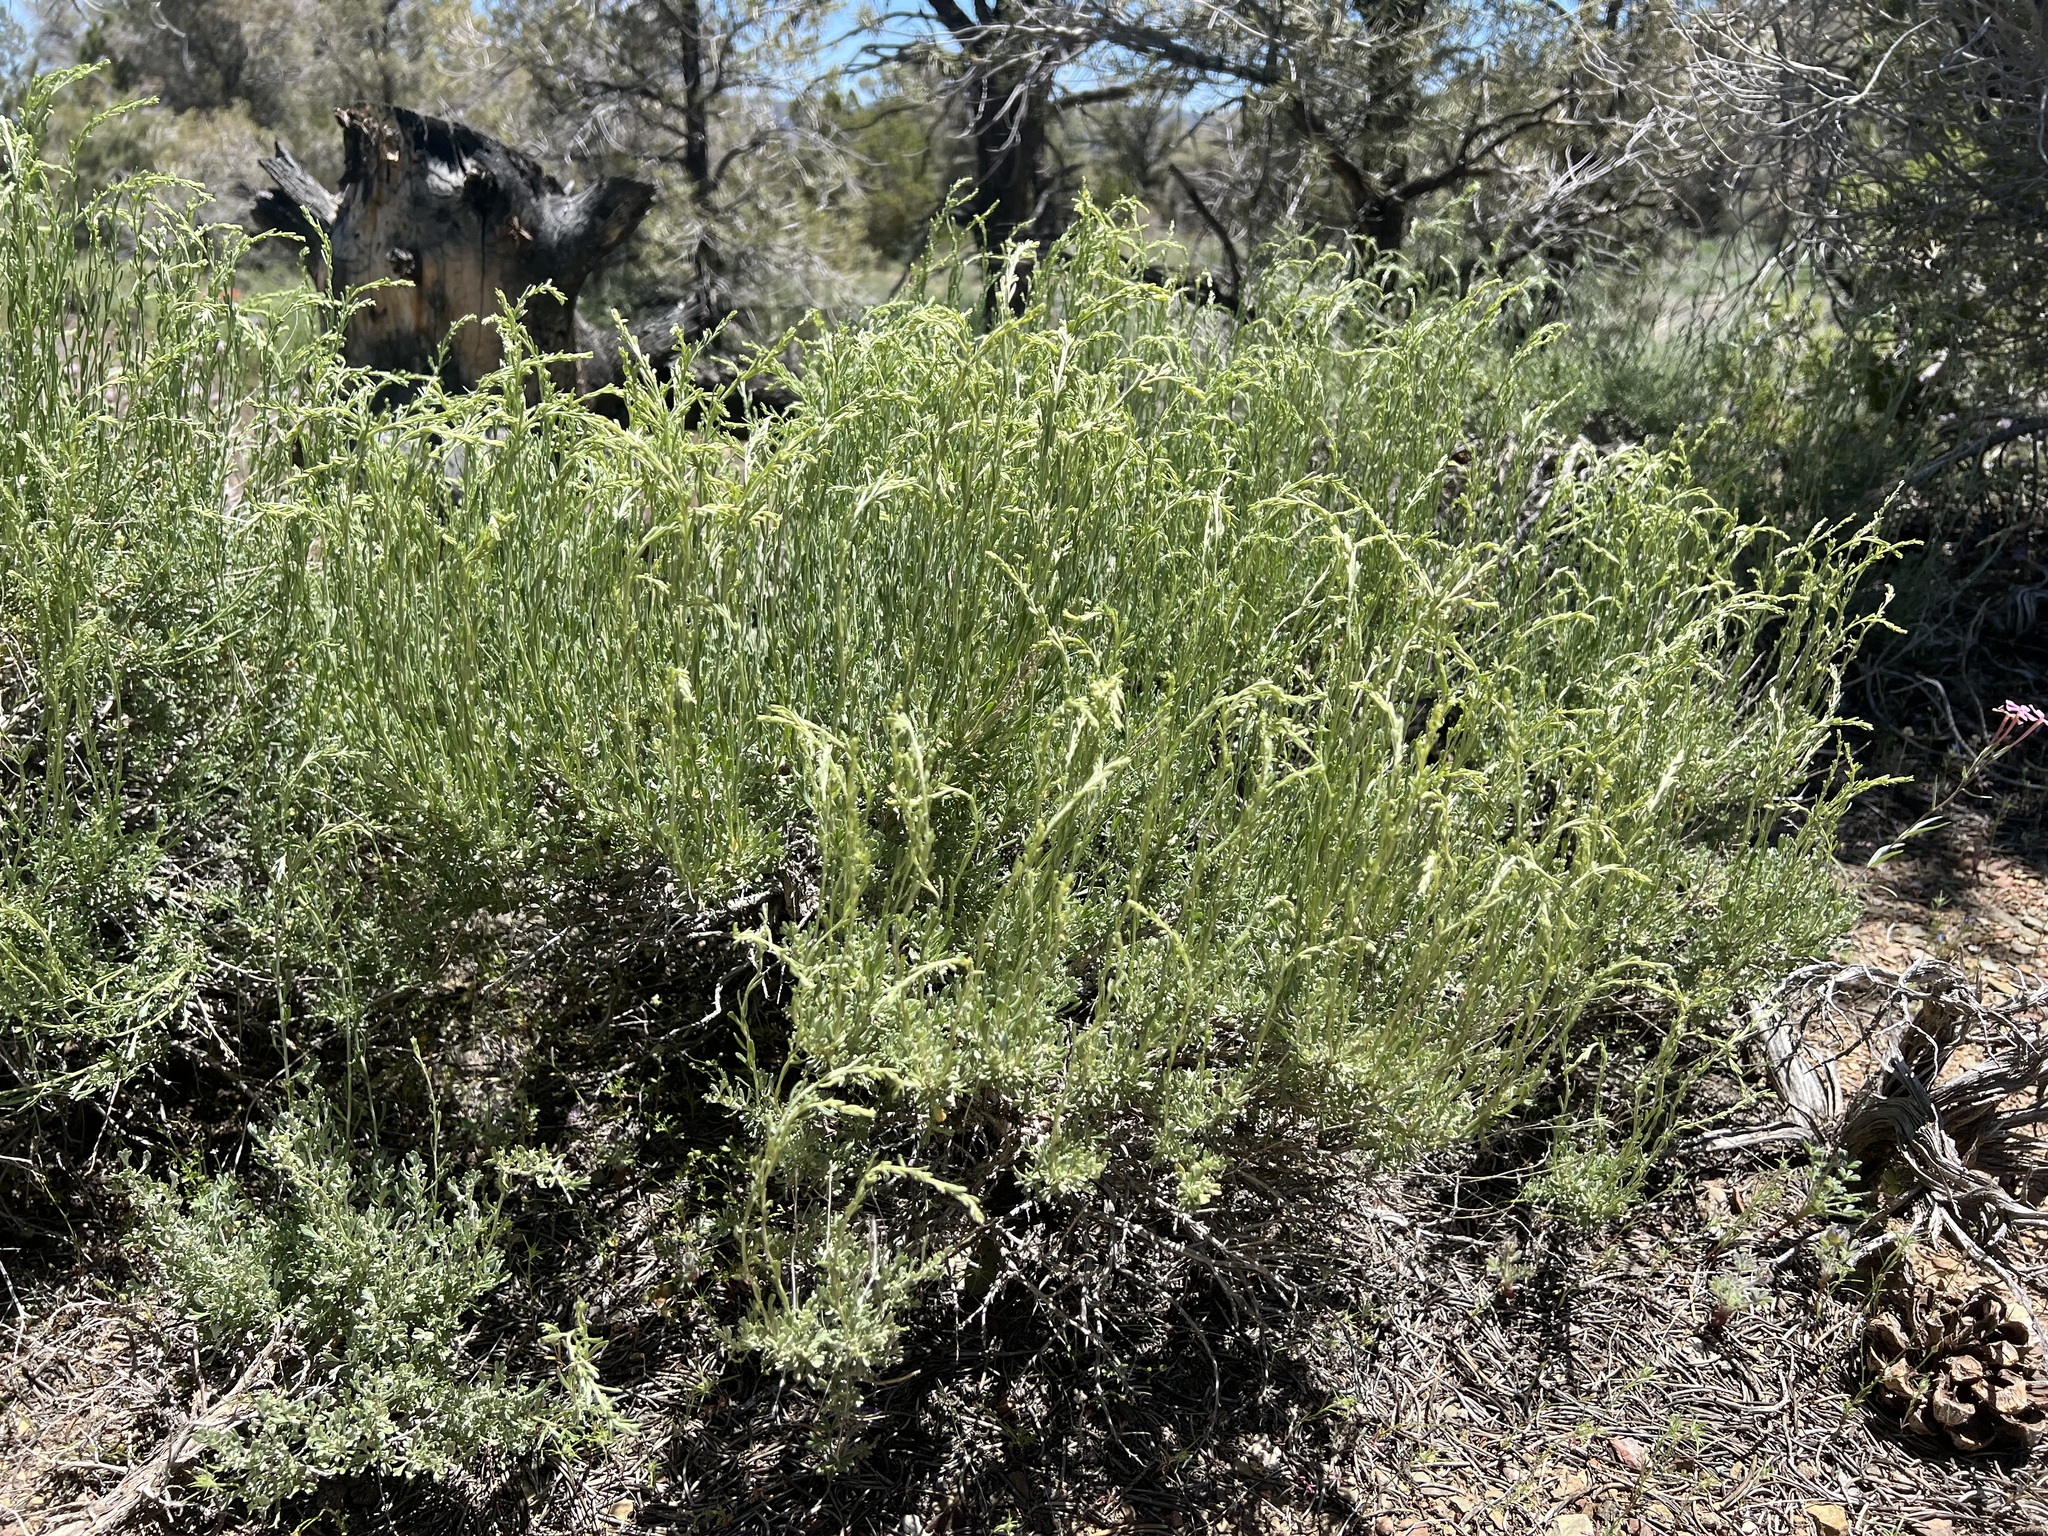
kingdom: Plantae
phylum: Tracheophyta
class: Magnoliopsida
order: Asterales
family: Asteraceae
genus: Artemisia
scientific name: Artemisia nova
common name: Black-sage
